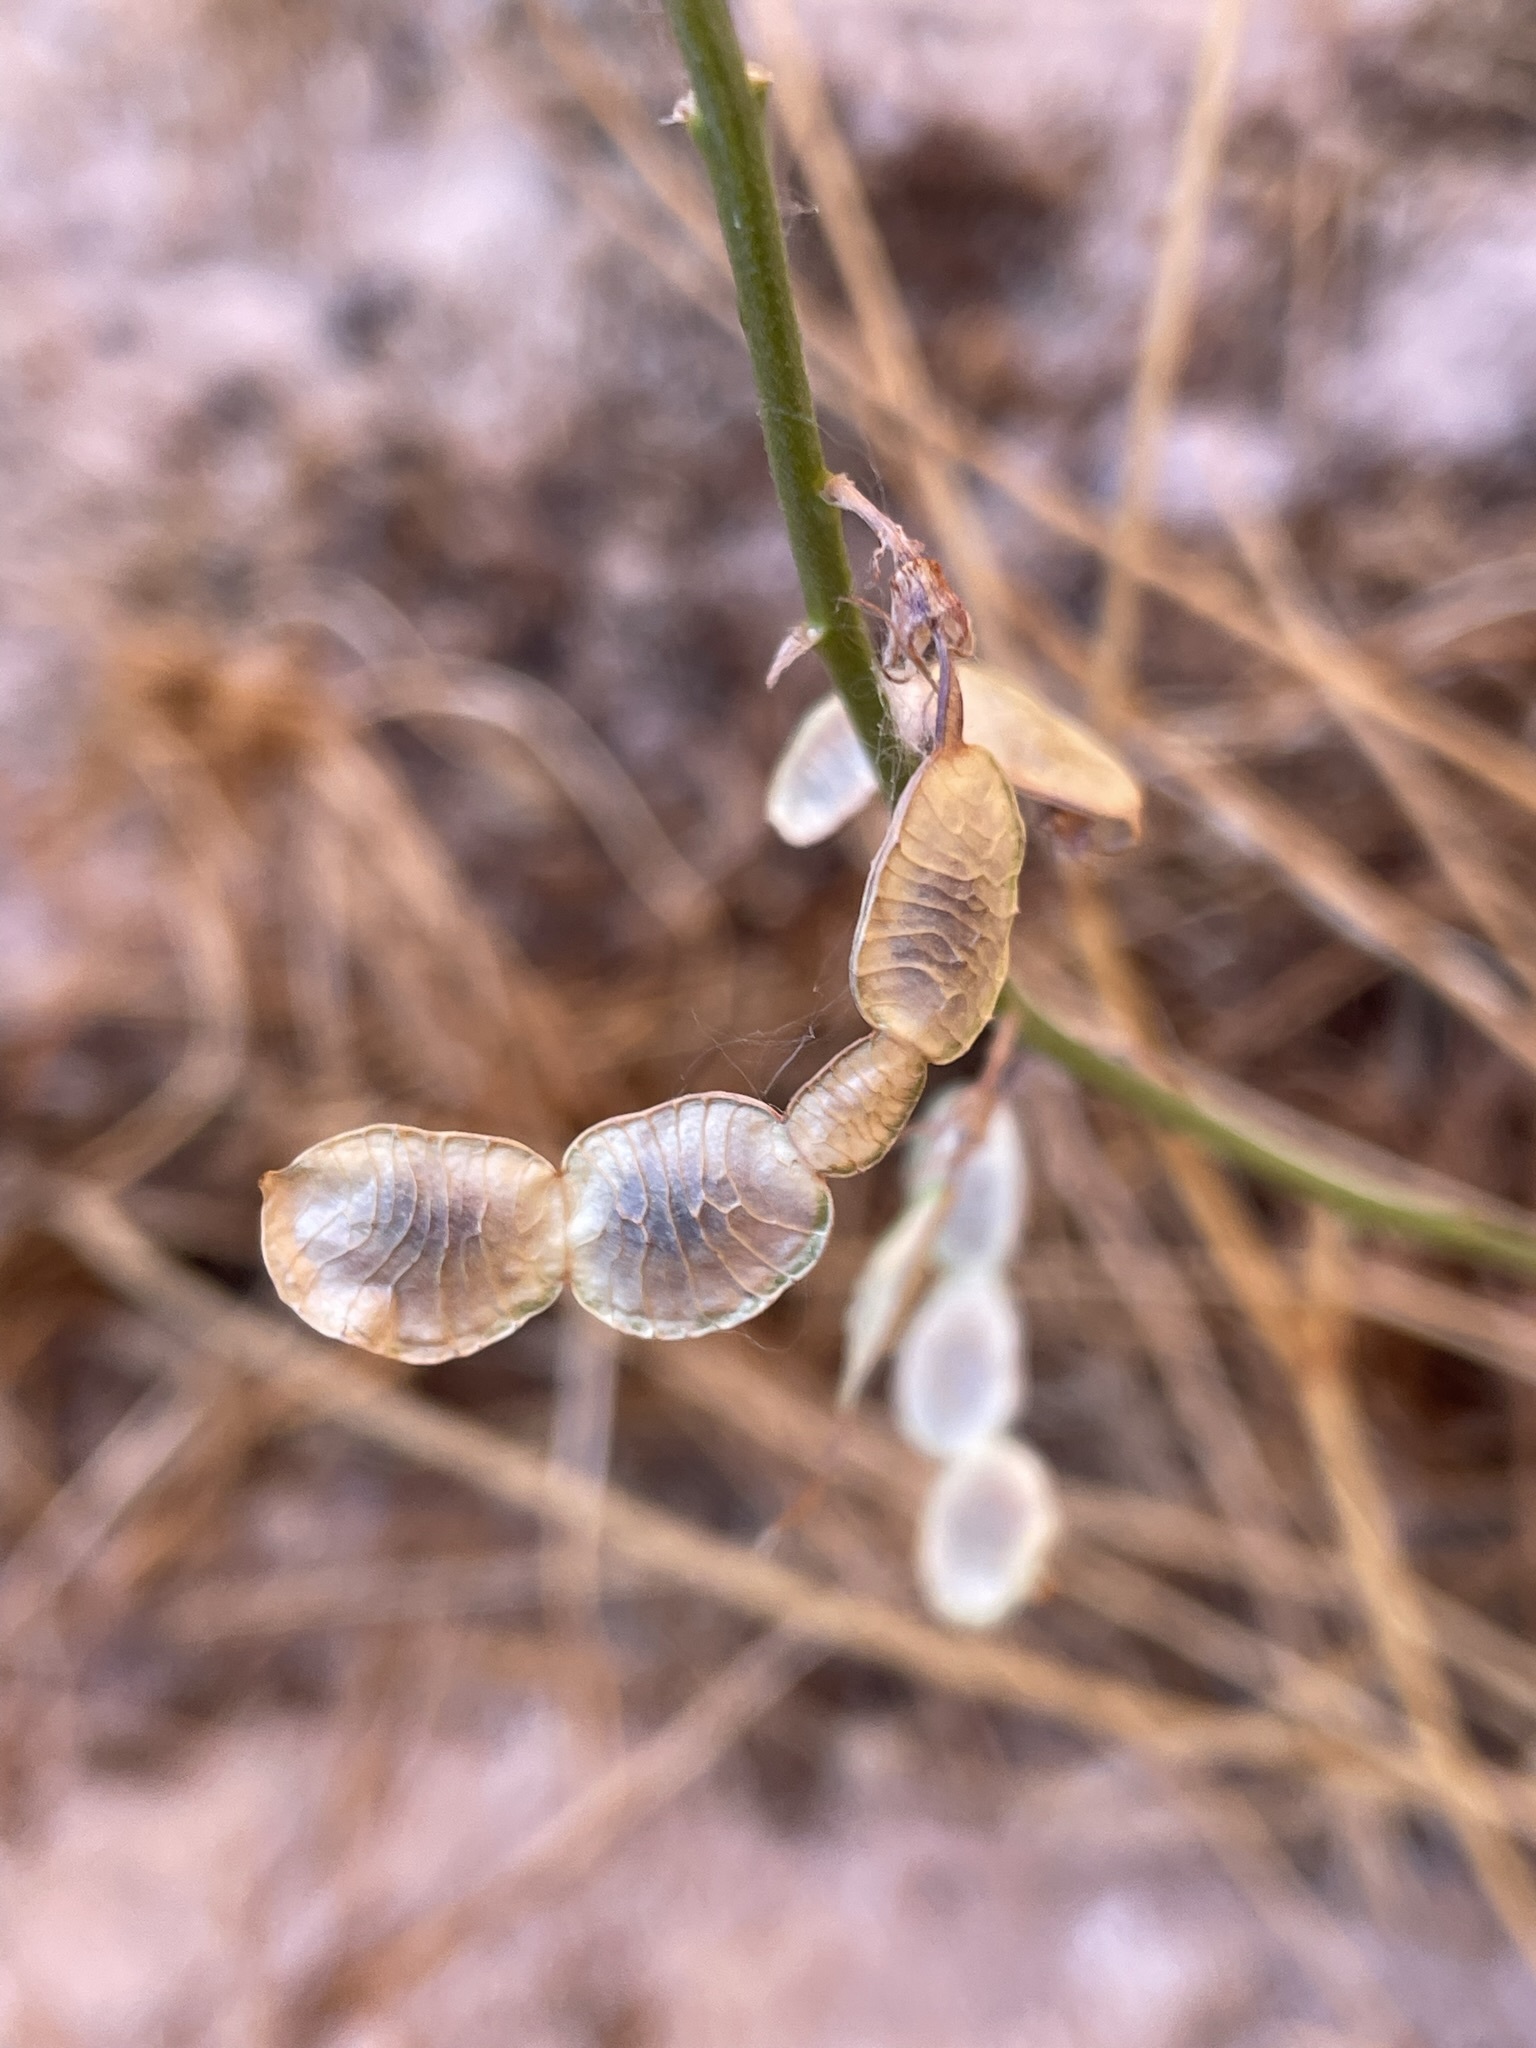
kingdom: Plantae
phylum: Tracheophyta
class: Magnoliopsida
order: Fabales
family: Fabaceae
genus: Hedysarum
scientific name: Hedysarum boreale
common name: Northern sweet-vetch
